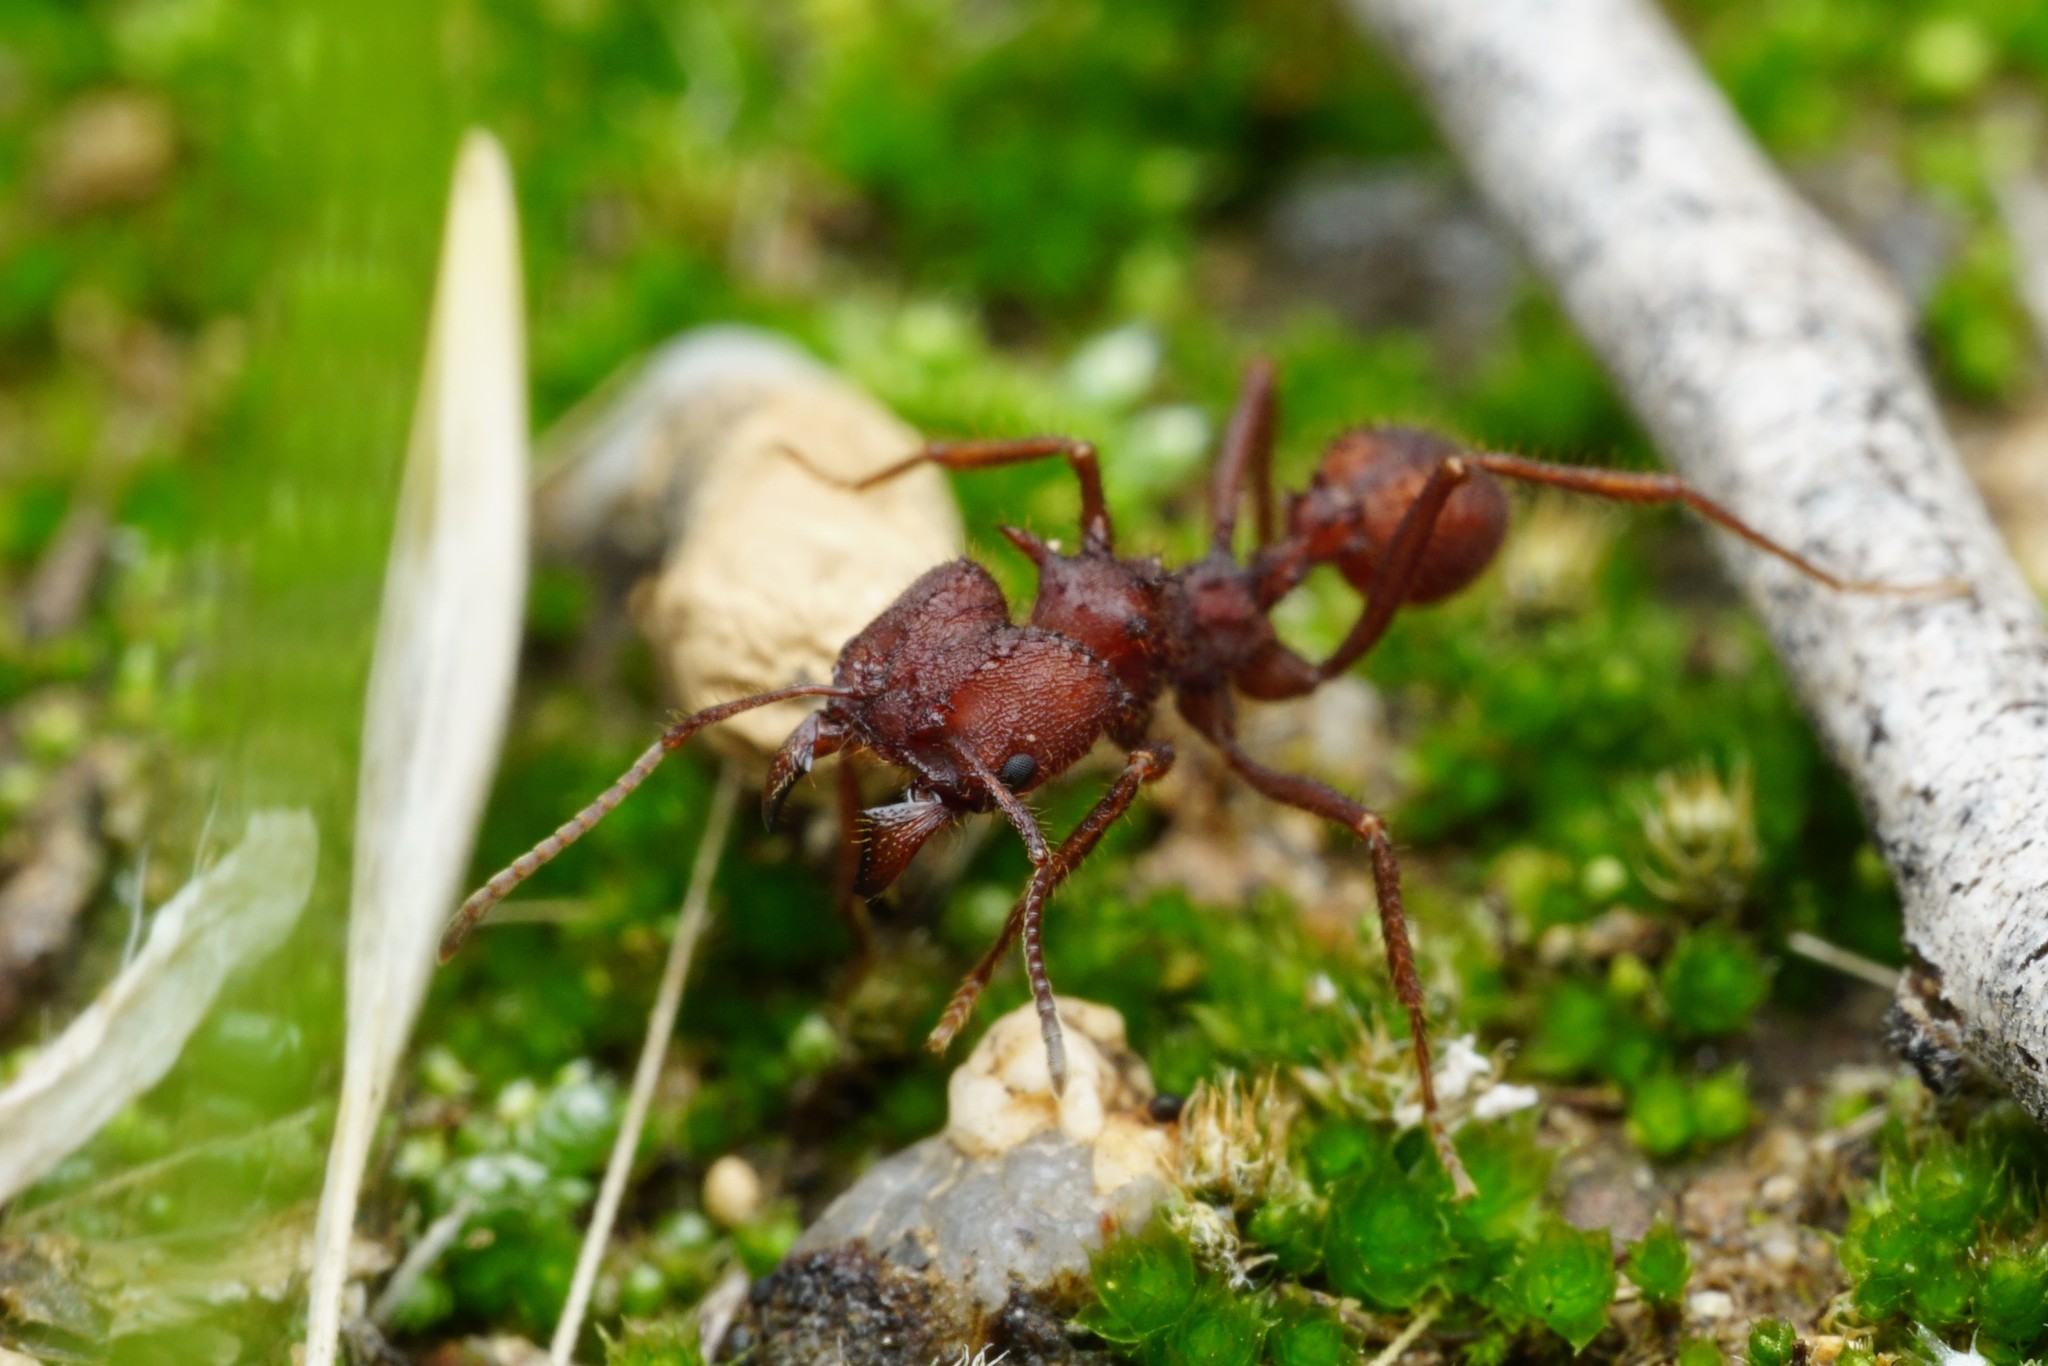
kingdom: Animalia
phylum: Arthropoda
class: Insecta
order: Hymenoptera
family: Formicidae
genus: Acromyrmex
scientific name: Acromyrmex versicolor
